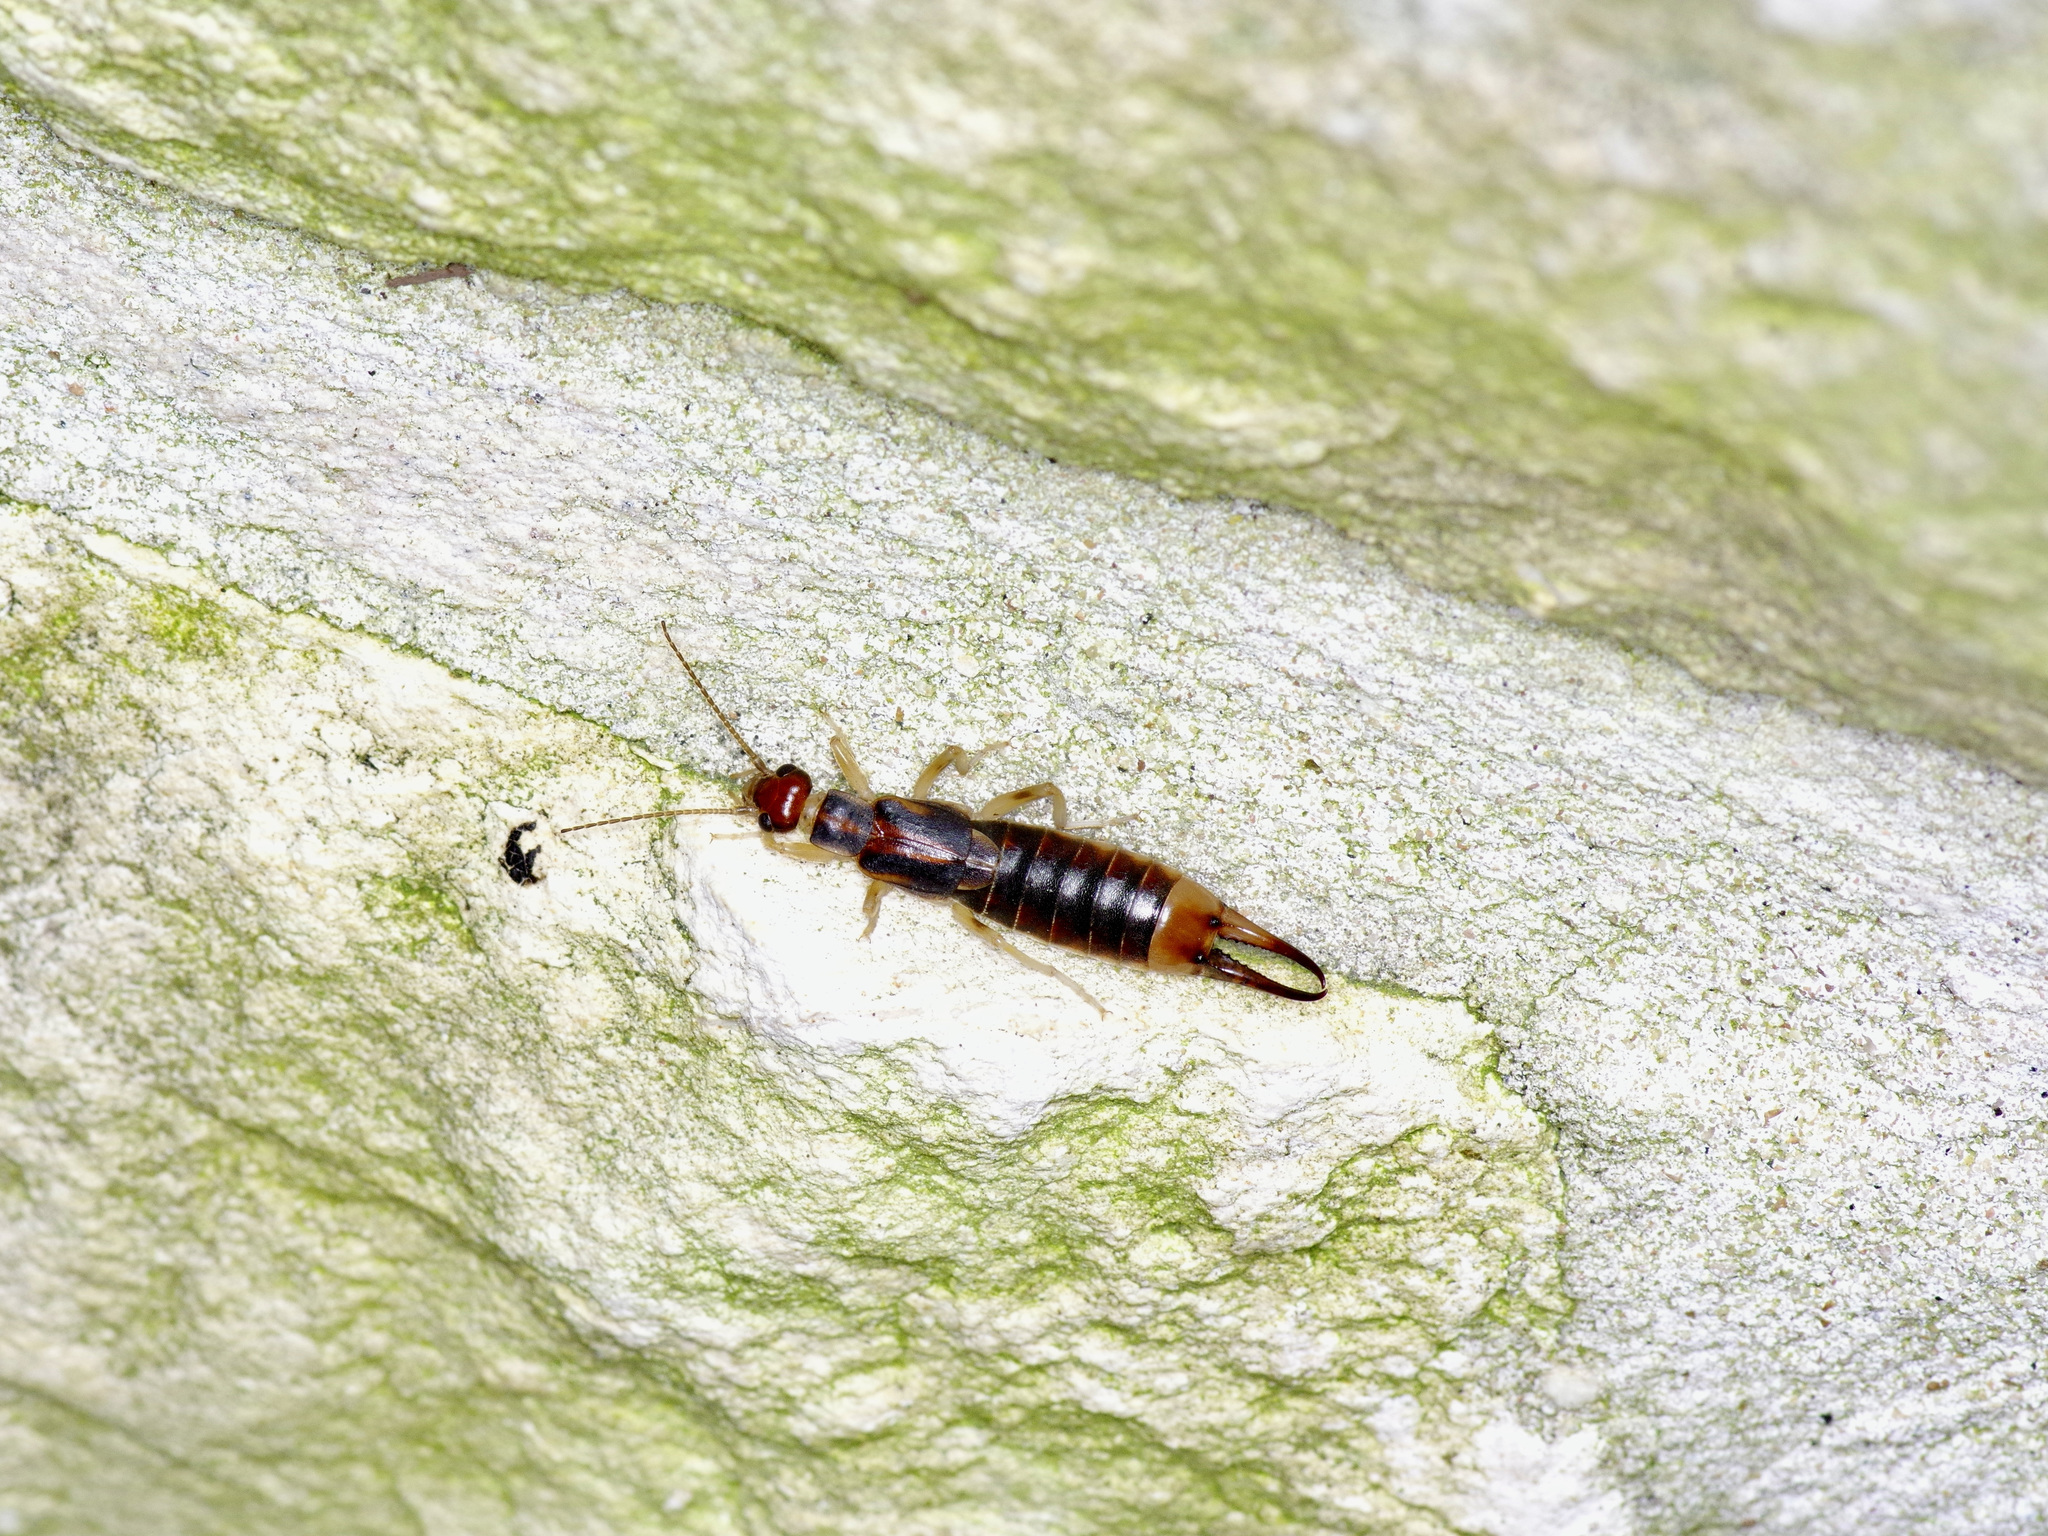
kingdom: Animalia
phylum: Arthropoda
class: Insecta
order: Dermaptera
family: Labiduridae
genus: Labidura
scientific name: Labidura riparia
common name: Striped earwig
